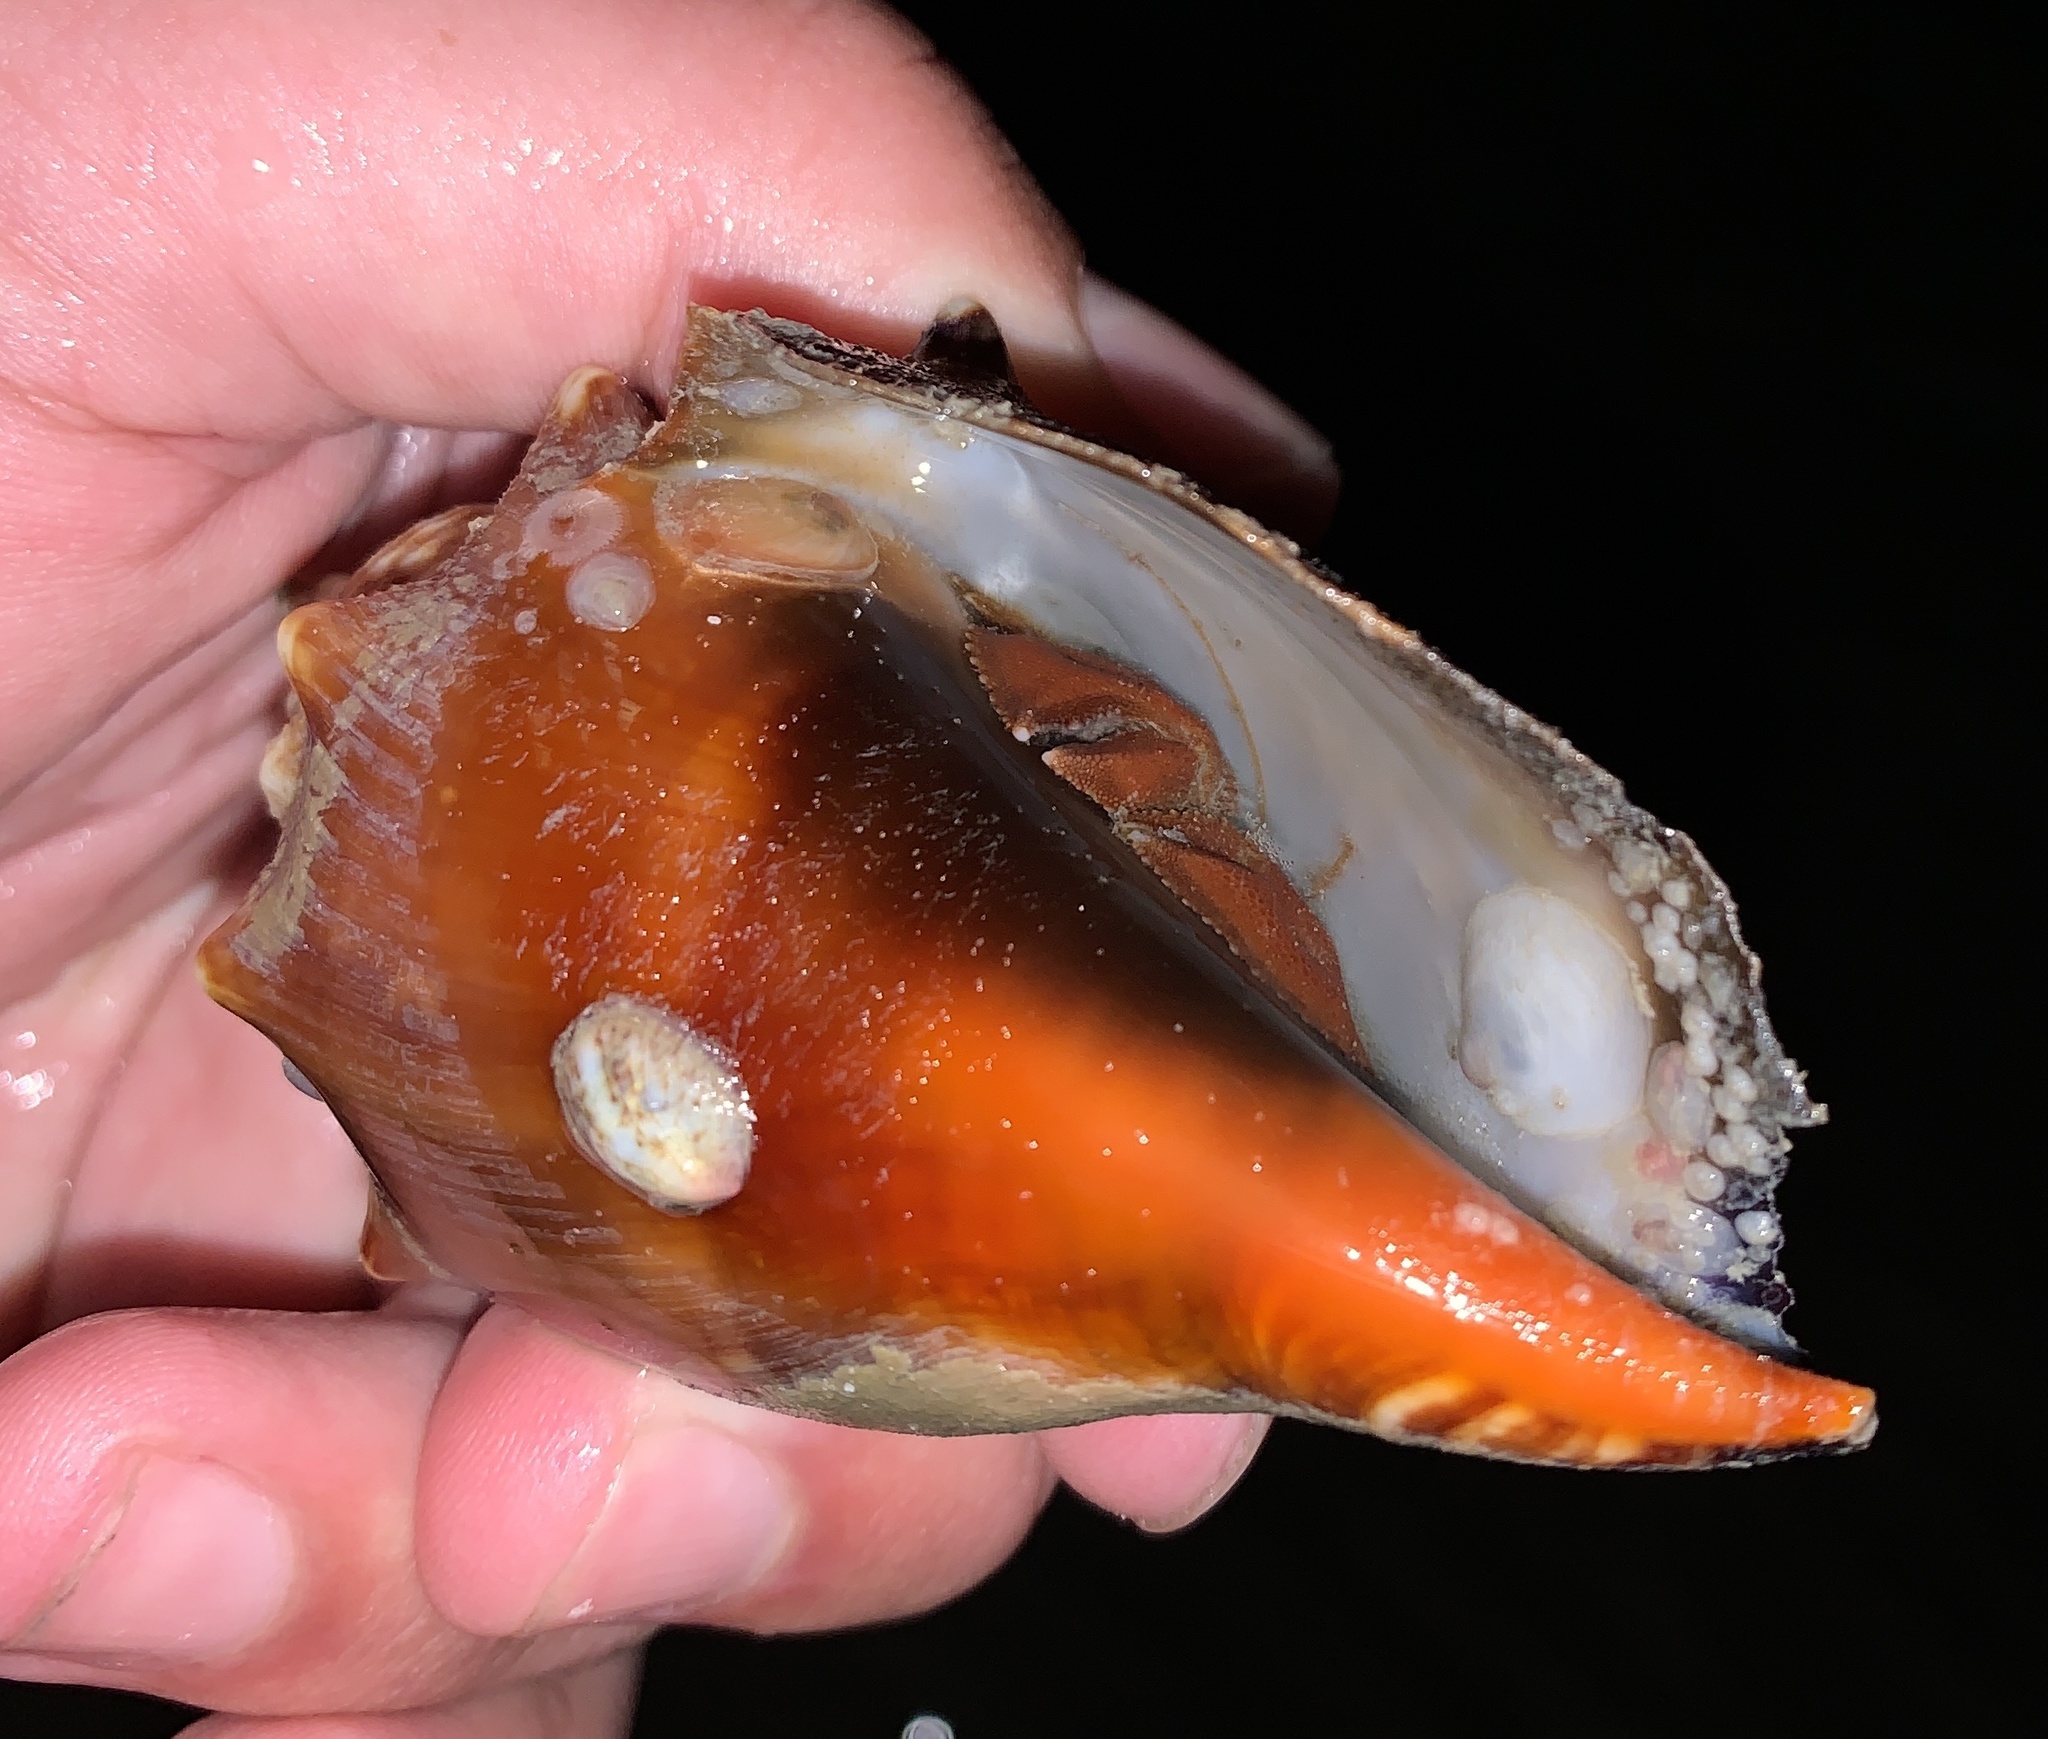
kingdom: Animalia
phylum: Arthropoda
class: Malacostraca
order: Decapoda
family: Paguridae
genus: Pagurus
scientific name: Pagurus impressus
